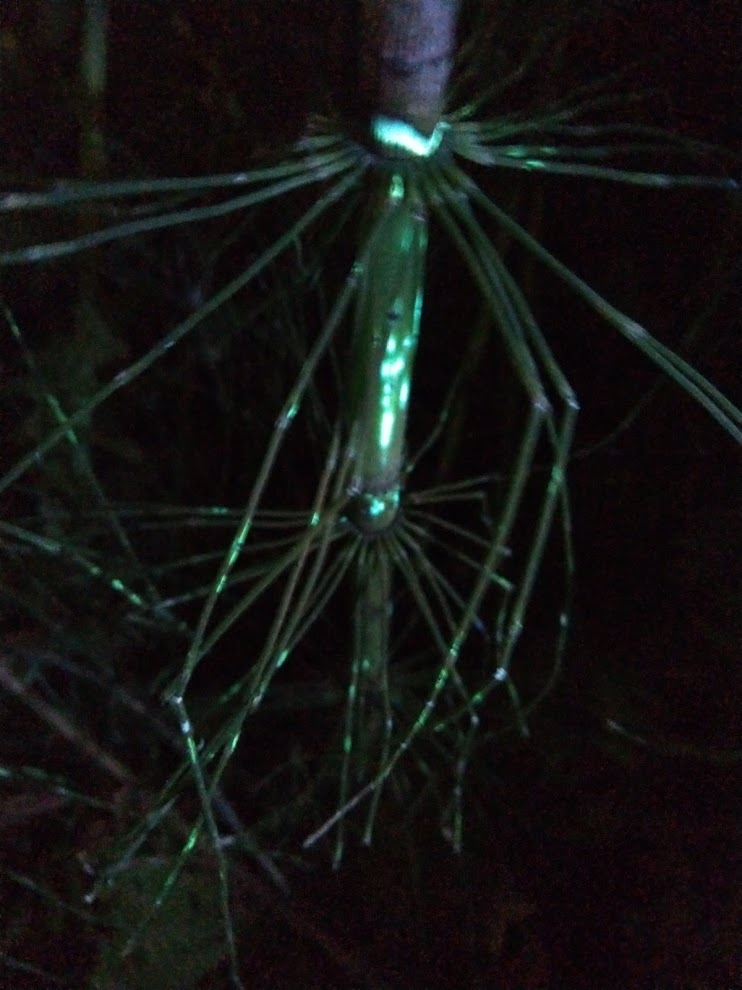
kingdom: Plantae
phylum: Tracheophyta
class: Polypodiopsida
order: Equisetales
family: Equisetaceae
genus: Equisetum
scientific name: Equisetum braunii
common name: Braun's horsetail
